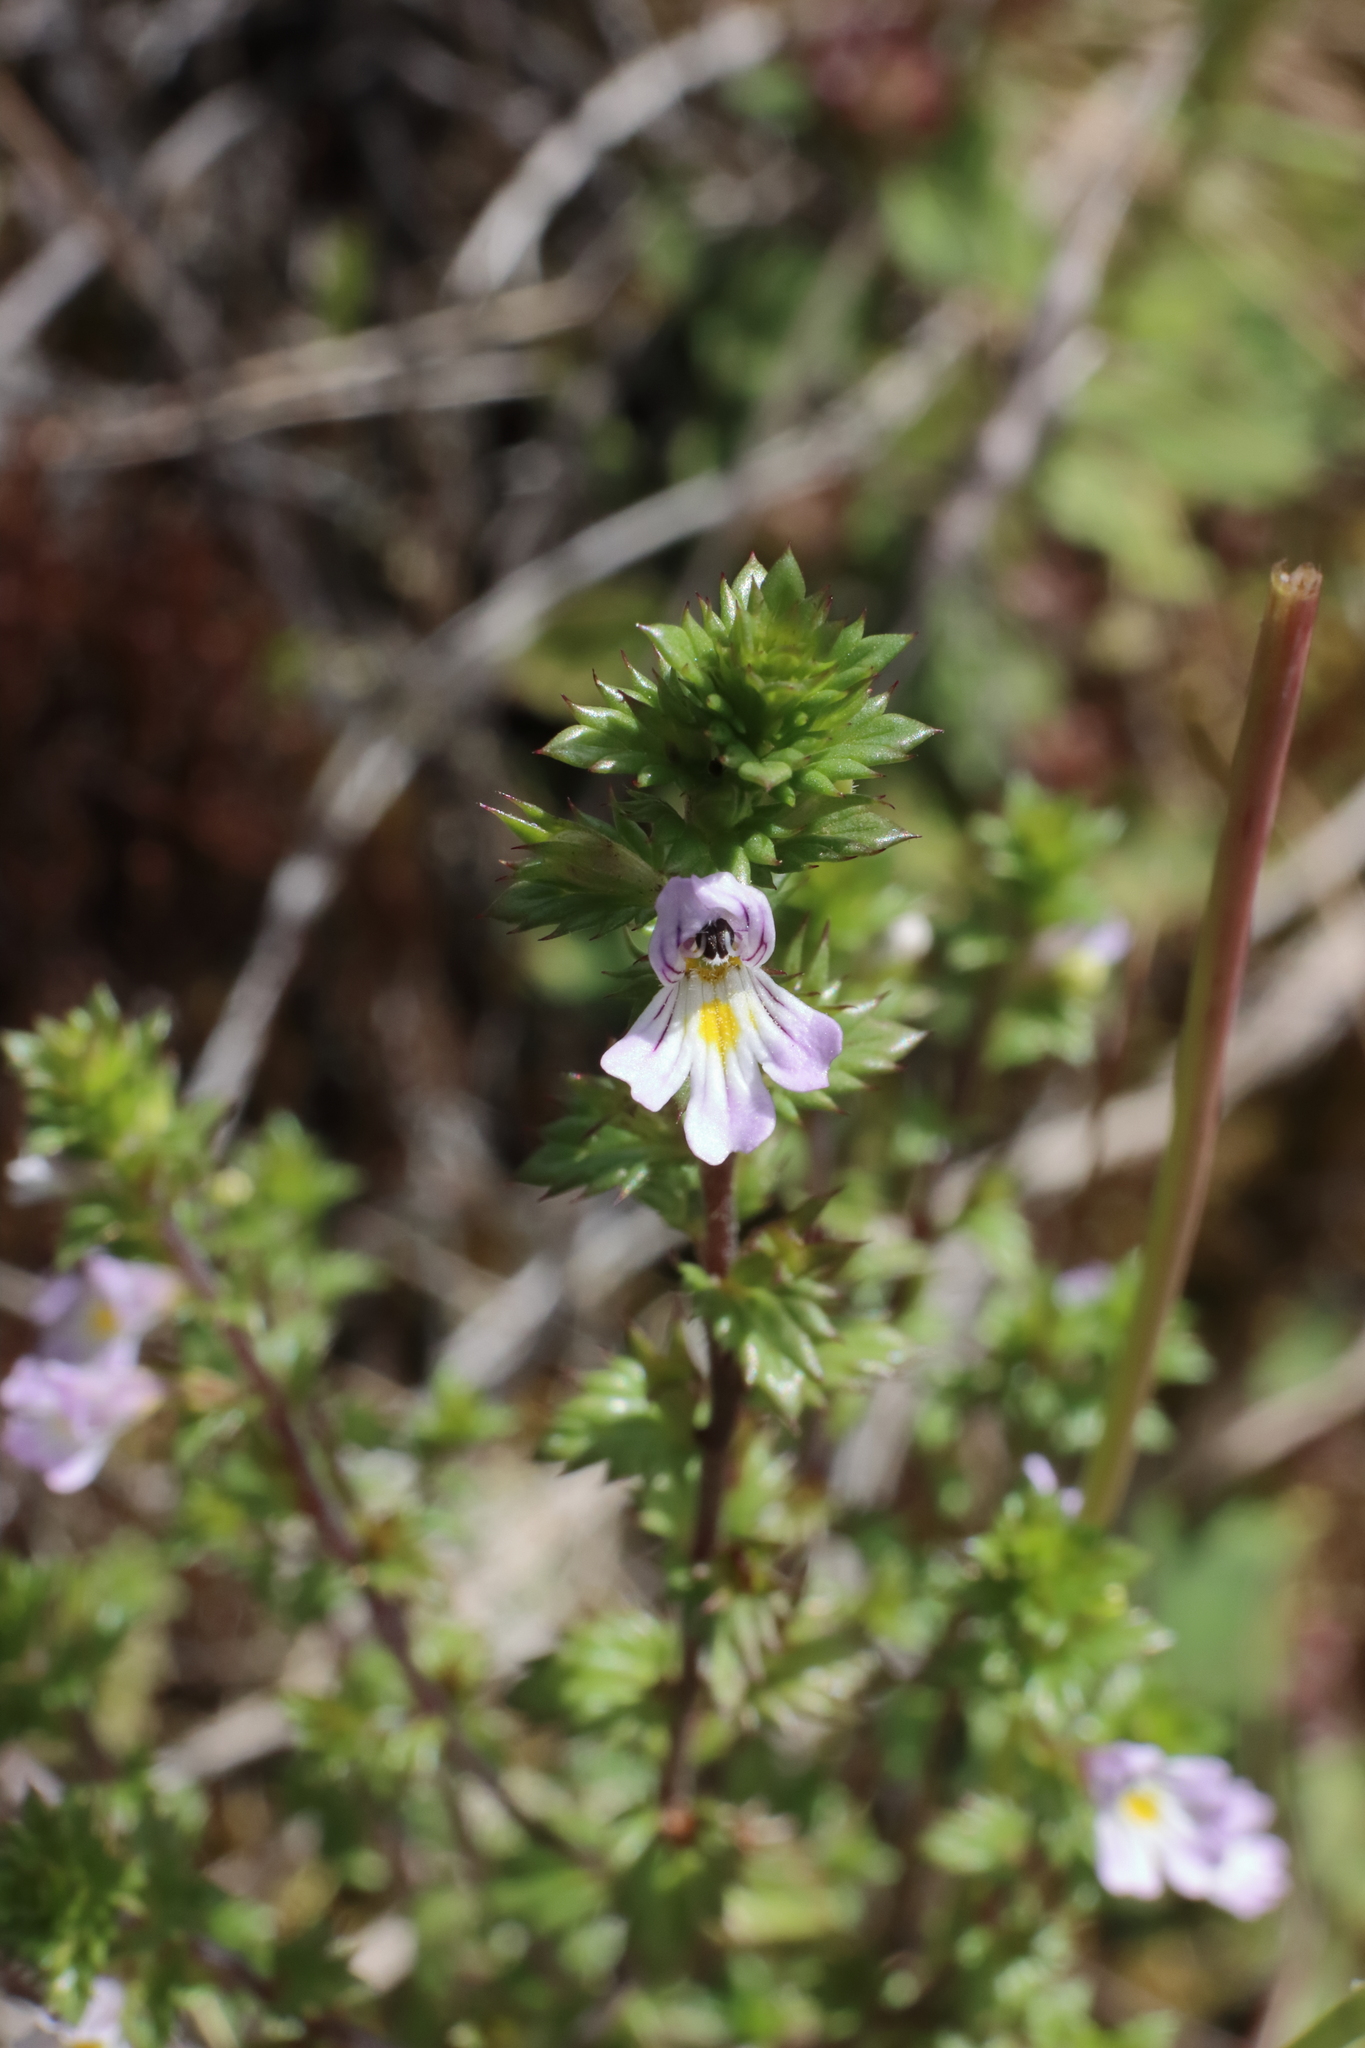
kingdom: Plantae
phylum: Tracheophyta
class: Magnoliopsida
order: Lamiales
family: Orobanchaceae
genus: Euphrasia
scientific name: Euphrasia nemorosa
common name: Common eyebright
